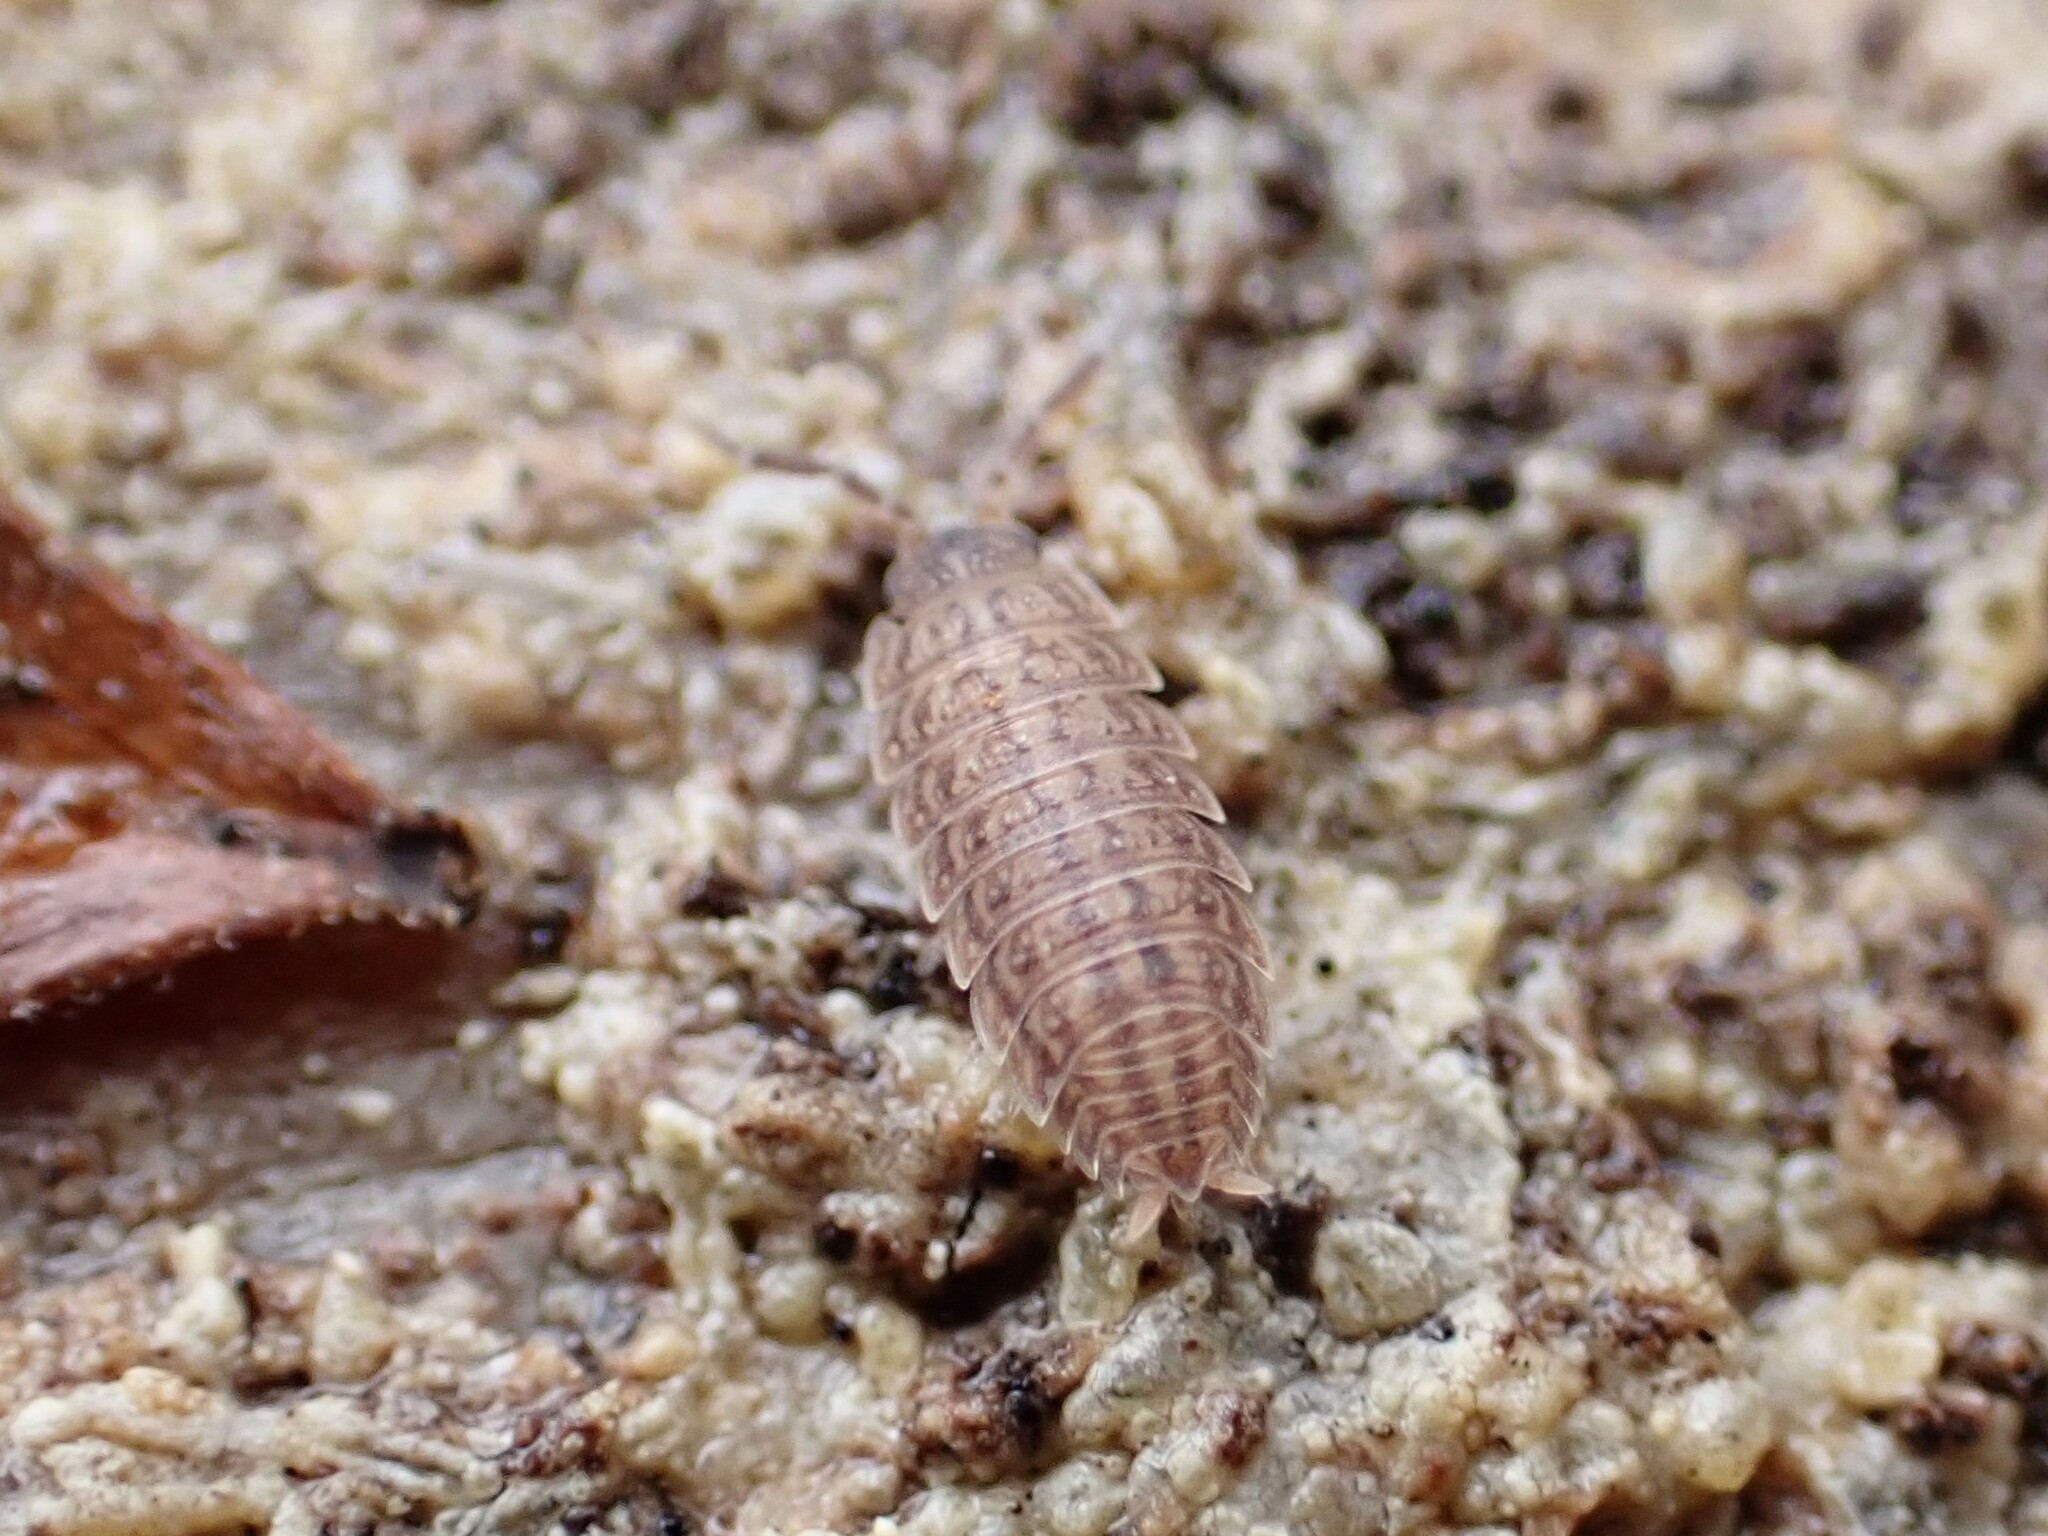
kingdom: Animalia
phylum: Arthropoda
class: Malacostraca
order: Isopoda
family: Porcellionidae
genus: Porcellionides
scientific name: Porcellionides virgatus
